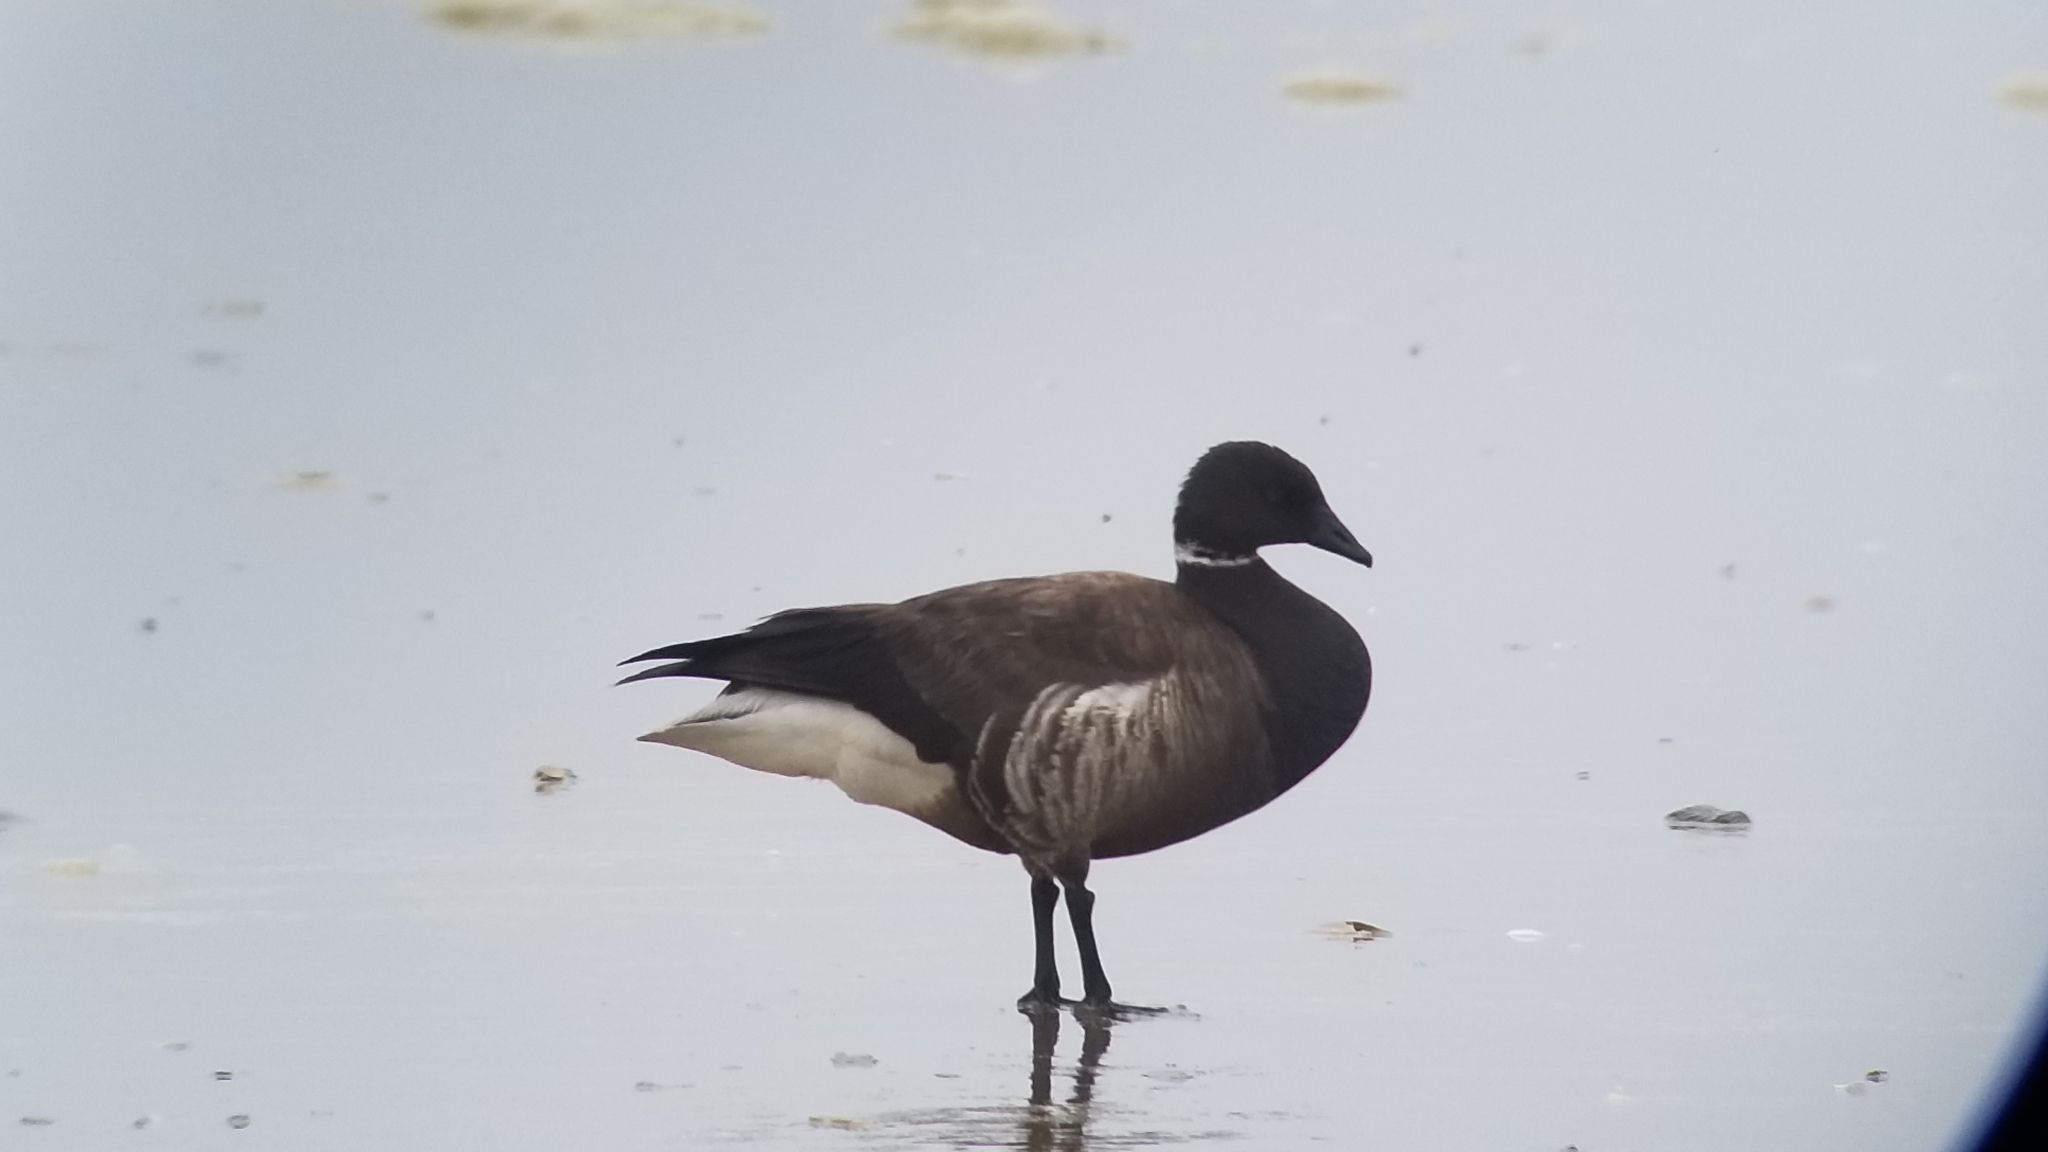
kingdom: Animalia
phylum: Chordata
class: Aves
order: Anseriformes
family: Anatidae
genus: Branta
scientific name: Branta bernicla
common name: Brant goose
